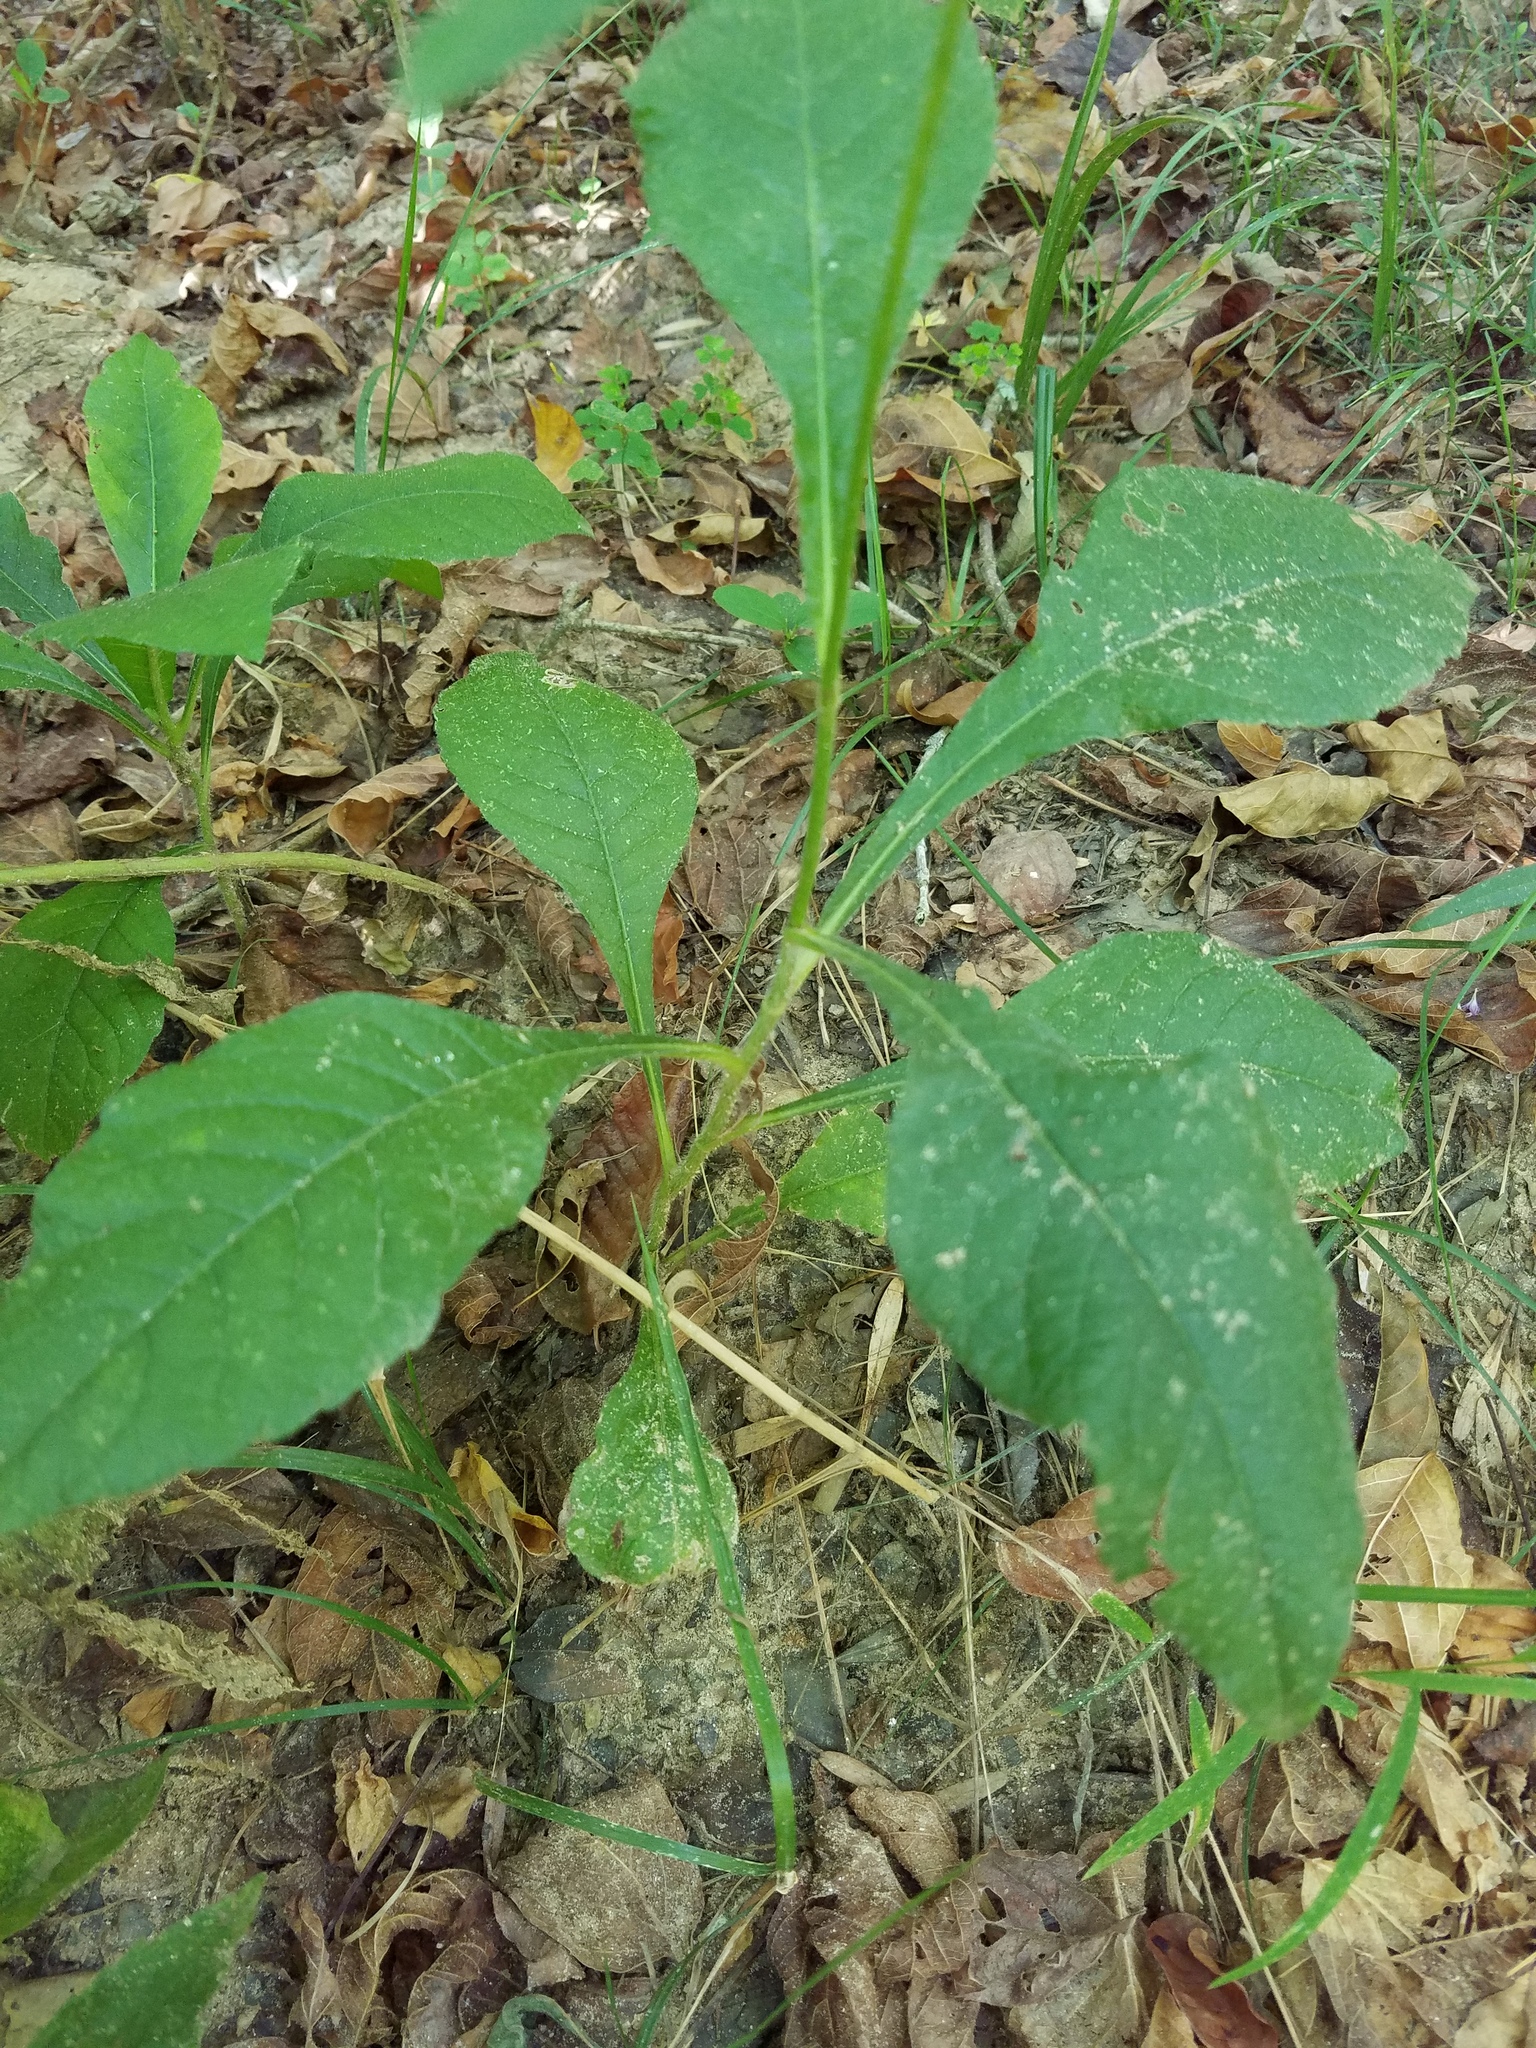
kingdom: Plantae
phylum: Tracheophyta
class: Magnoliopsida
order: Asterales
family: Asteraceae
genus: Elephantopus
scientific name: Elephantopus carolinianus
